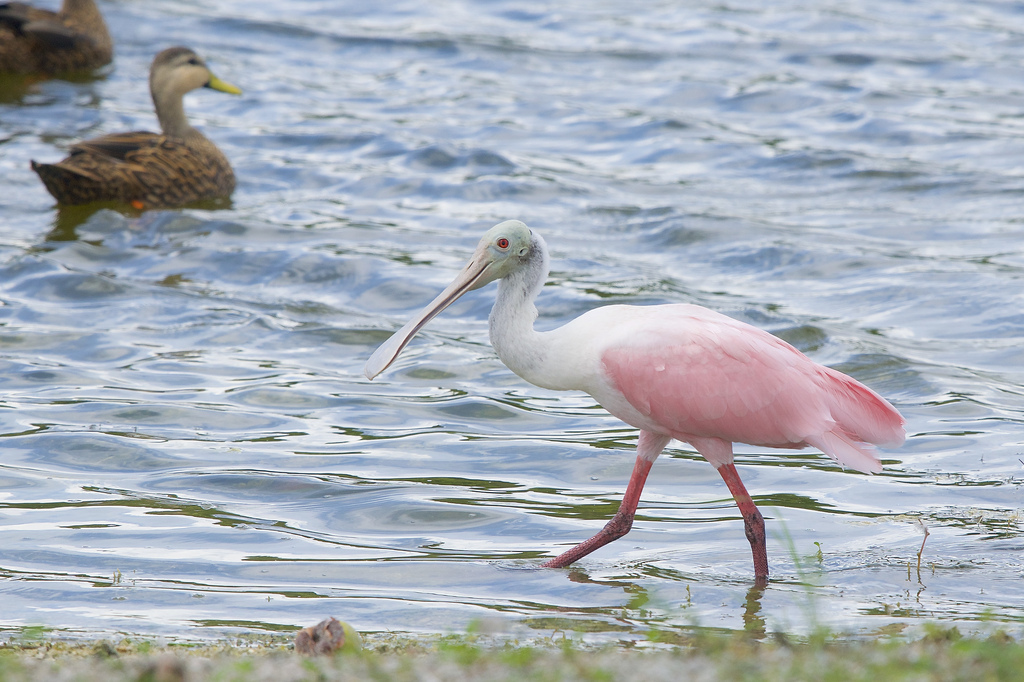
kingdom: Animalia
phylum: Chordata
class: Aves
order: Pelecaniformes
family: Threskiornithidae
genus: Platalea
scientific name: Platalea ajaja
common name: Roseate spoonbill
